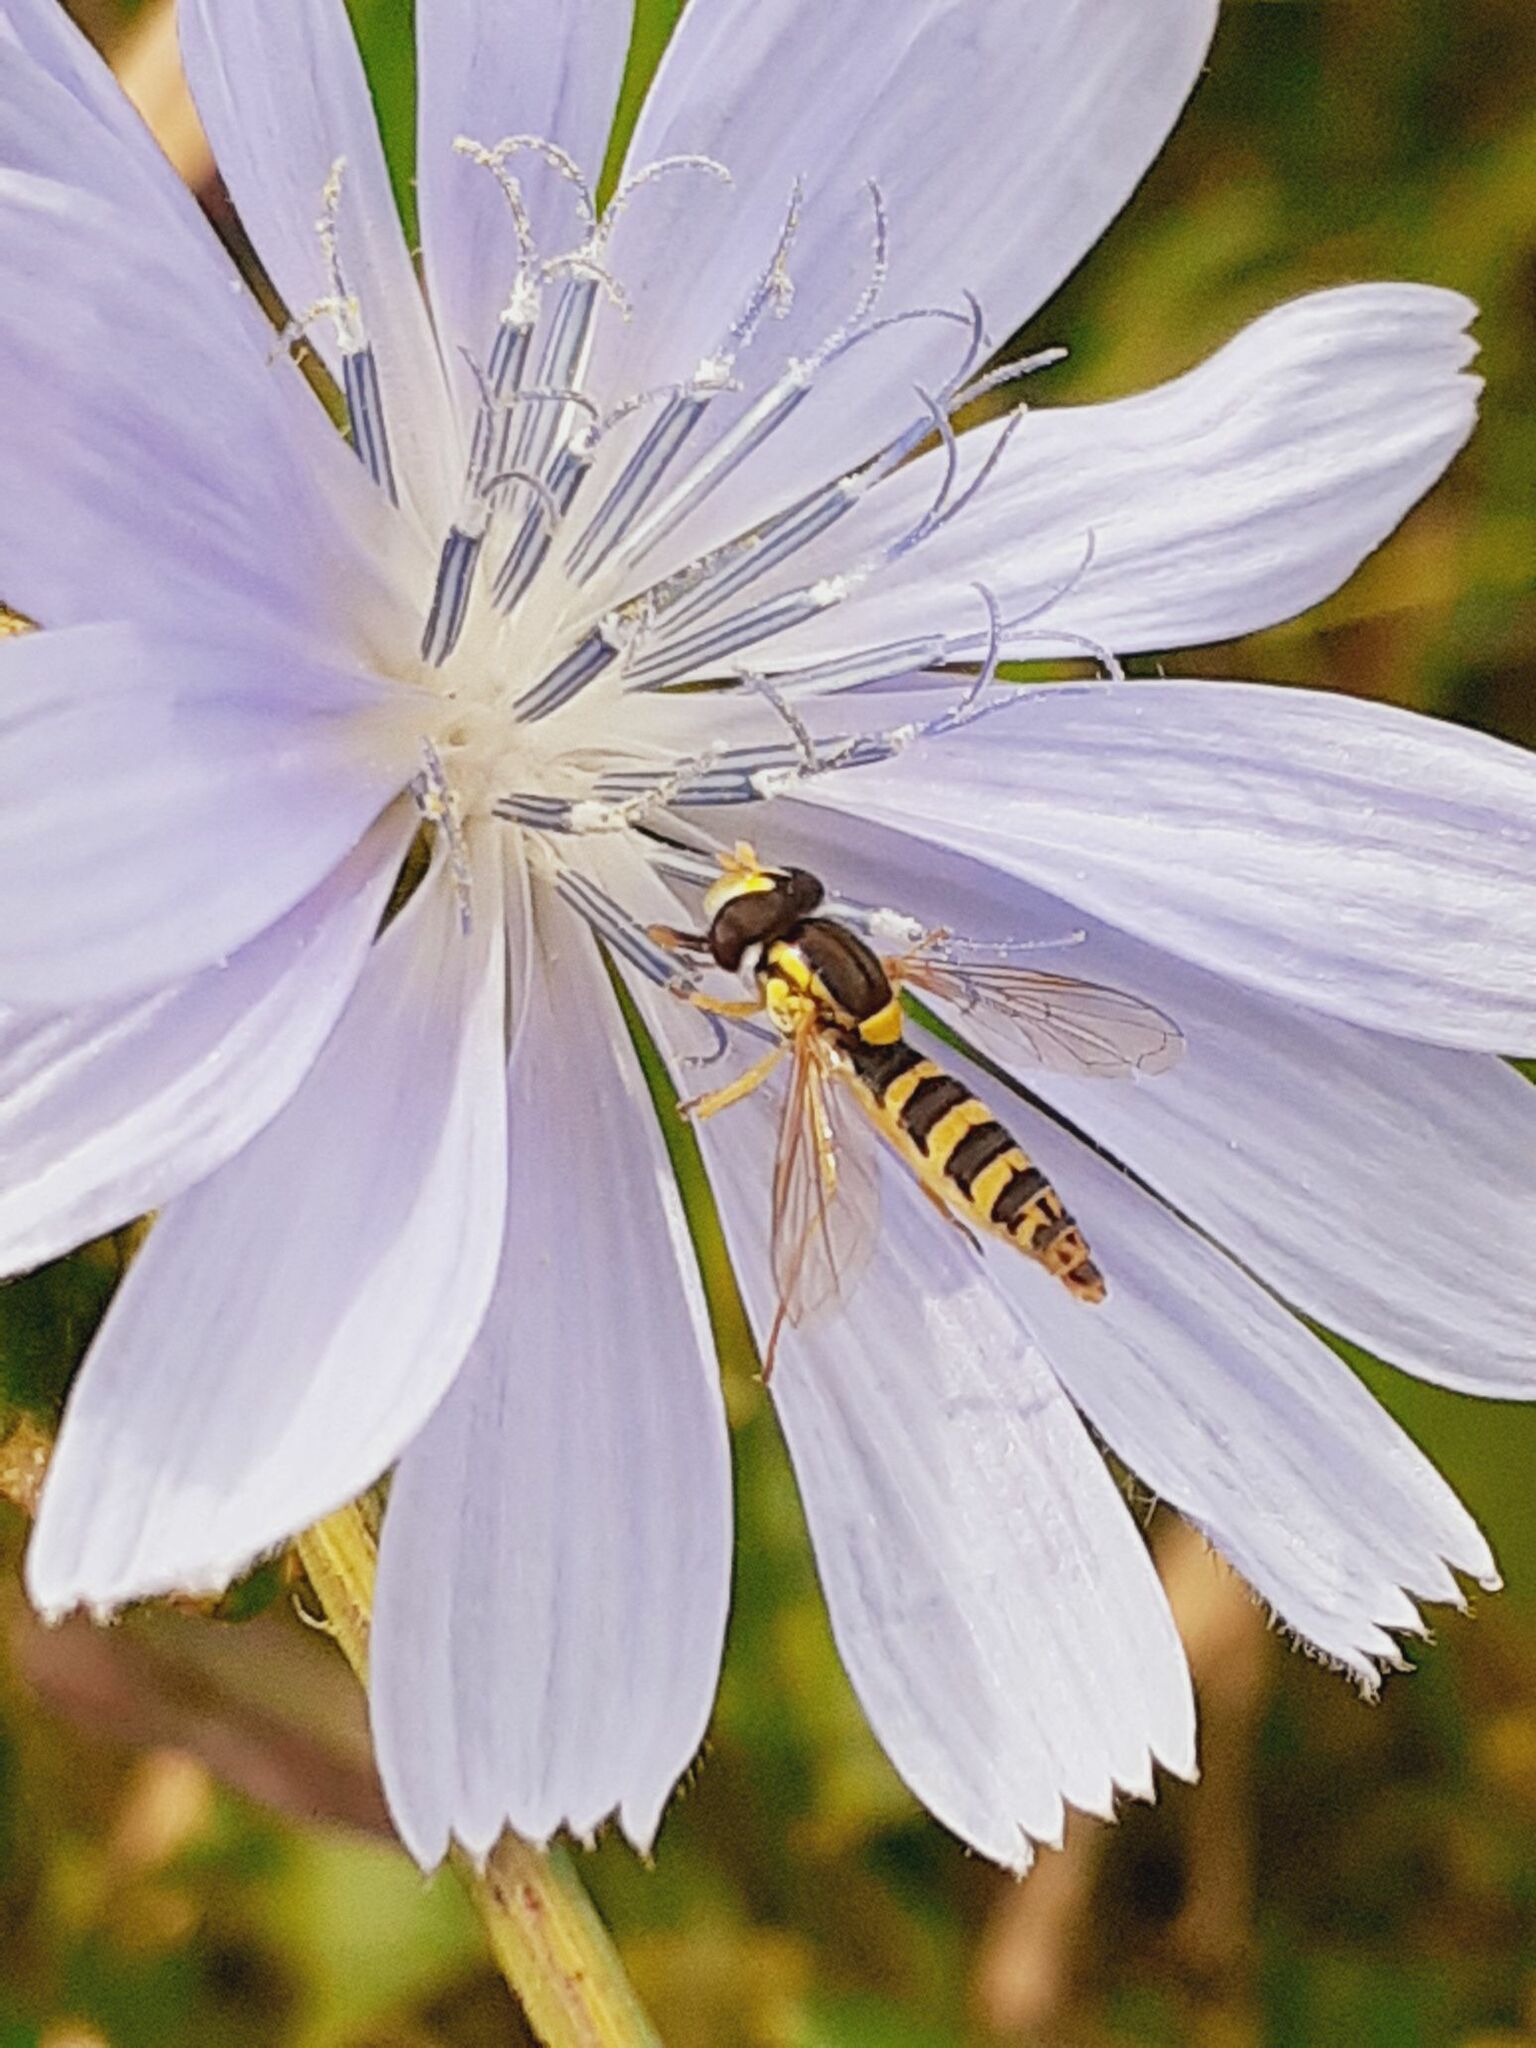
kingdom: Animalia
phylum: Arthropoda
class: Insecta
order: Diptera
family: Syrphidae
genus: Sphaerophoria
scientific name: Sphaerophoria
